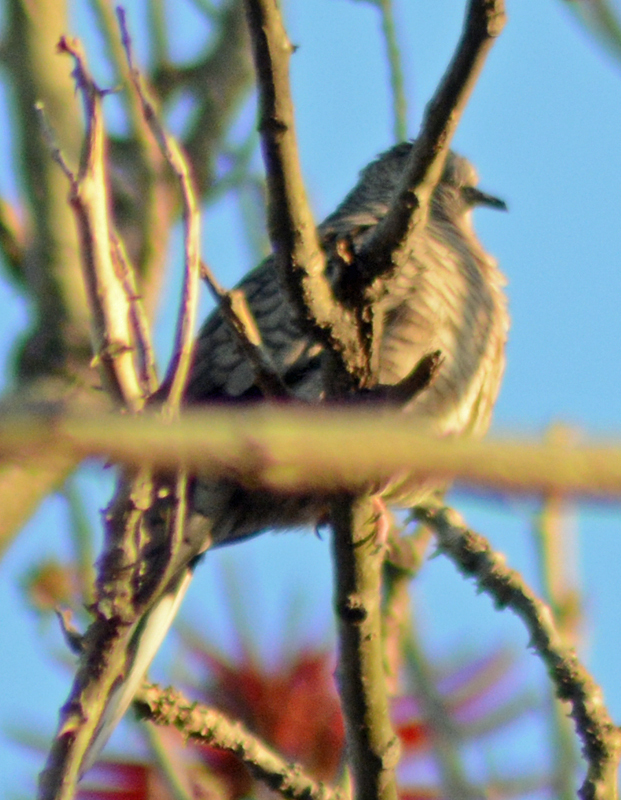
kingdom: Animalia
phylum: Chordata
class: Aves
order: Columbiformes
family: Columbidae
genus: Columbina
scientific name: Columbina inca
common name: Inca dove
